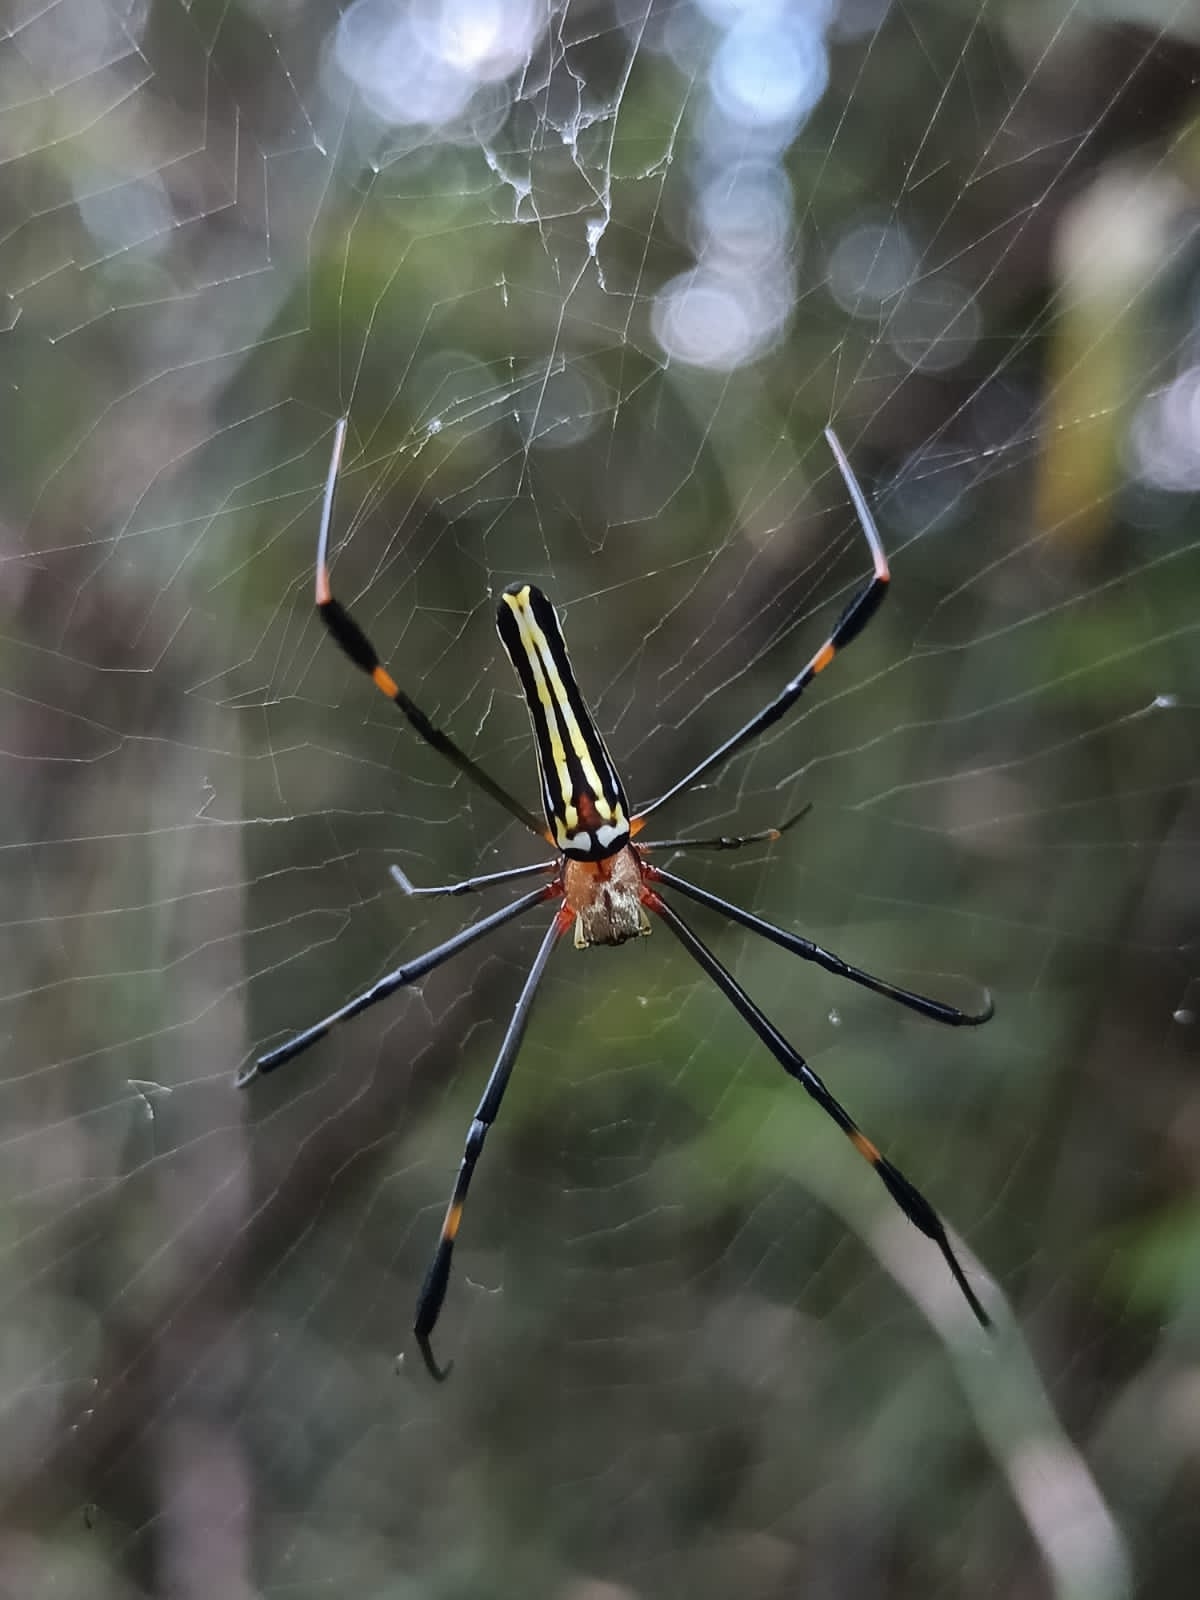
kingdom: Animalia
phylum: Arthropoda
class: Arachnida
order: Araneae
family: Araneidae
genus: Nephila
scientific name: Nephila pilipes
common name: Giant golden orb weaver
